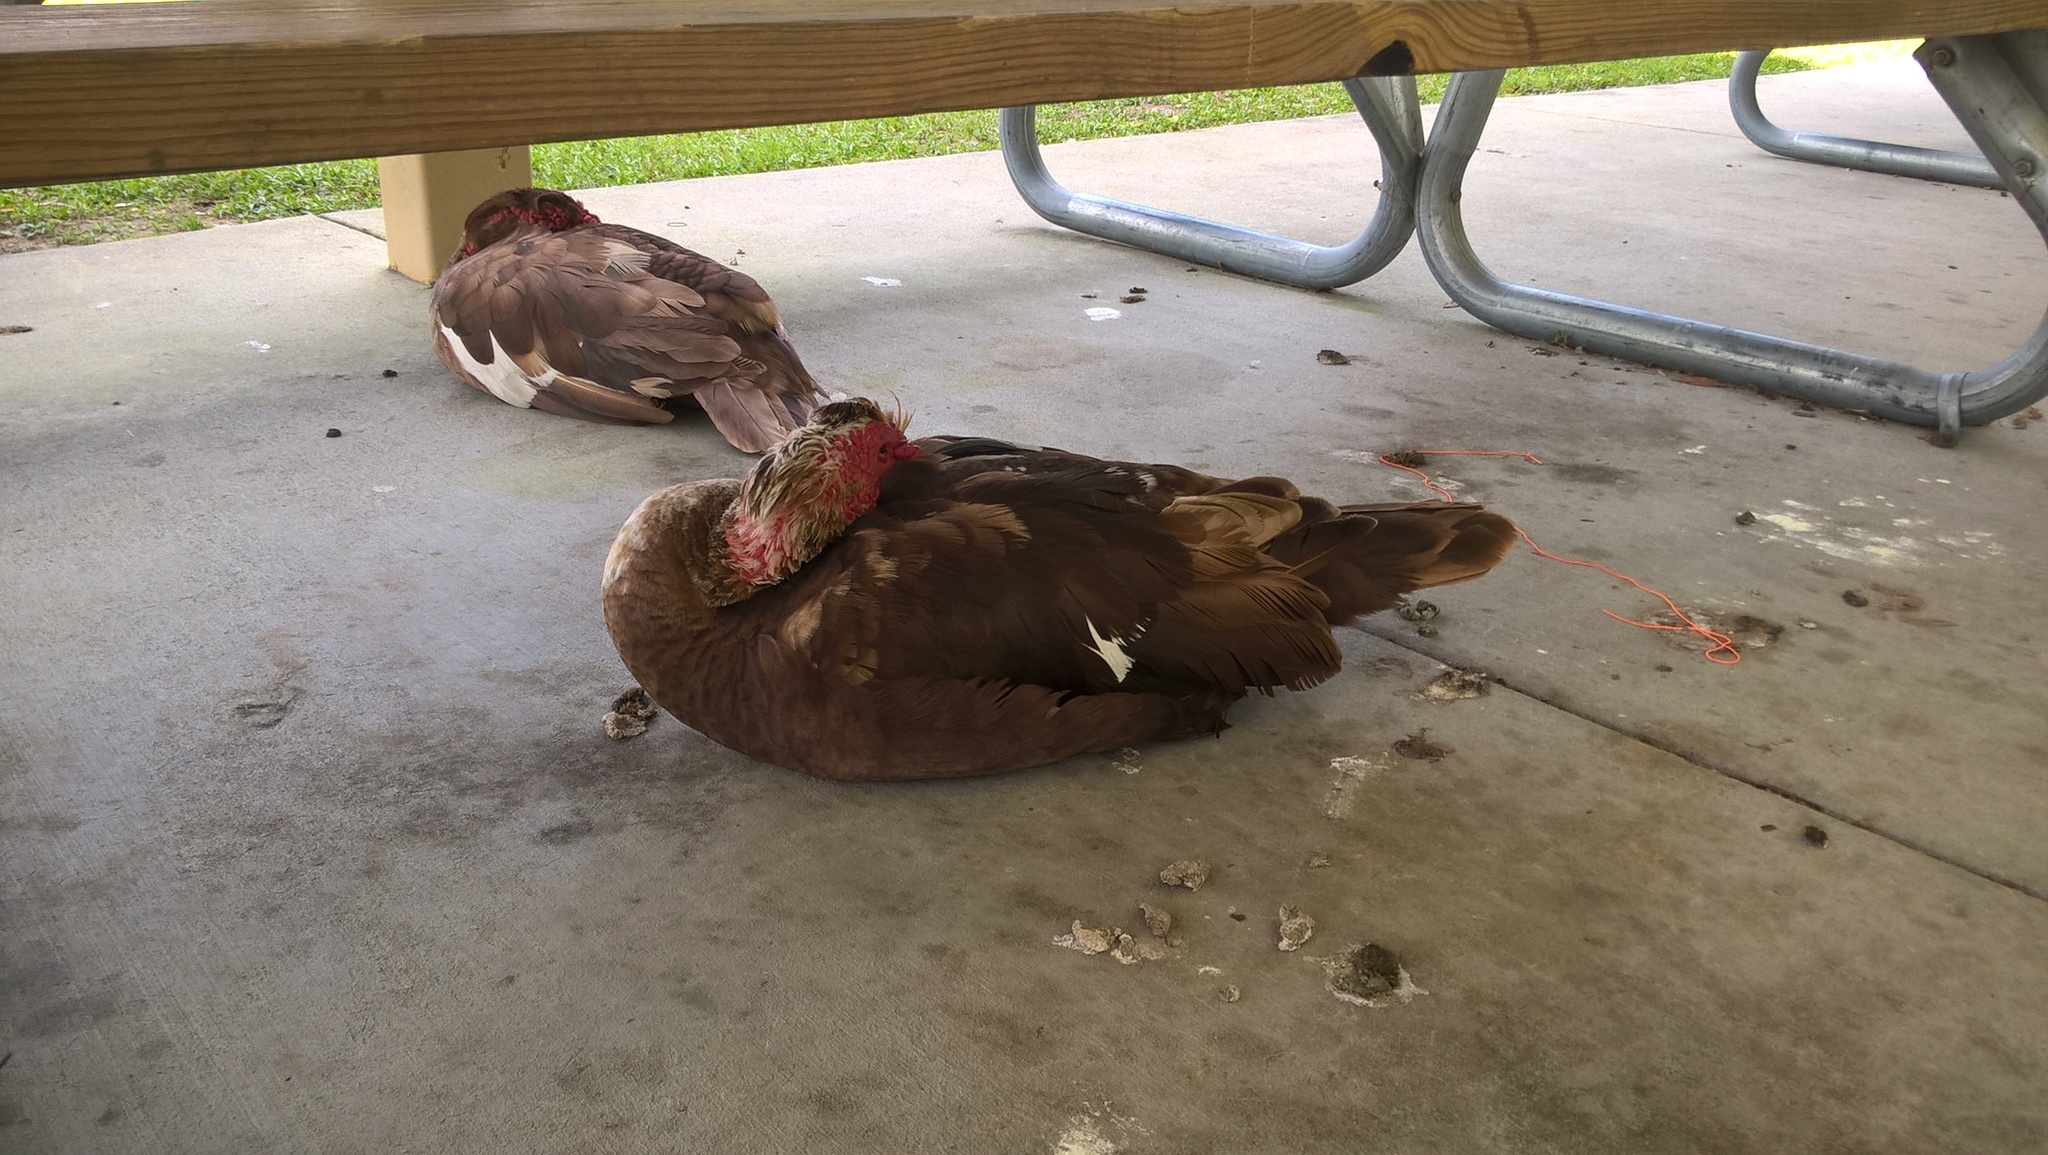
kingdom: Animalia
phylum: Chordata
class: Aves
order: Anseriformes
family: Anatidae
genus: Cairina
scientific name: Cairina moschata
